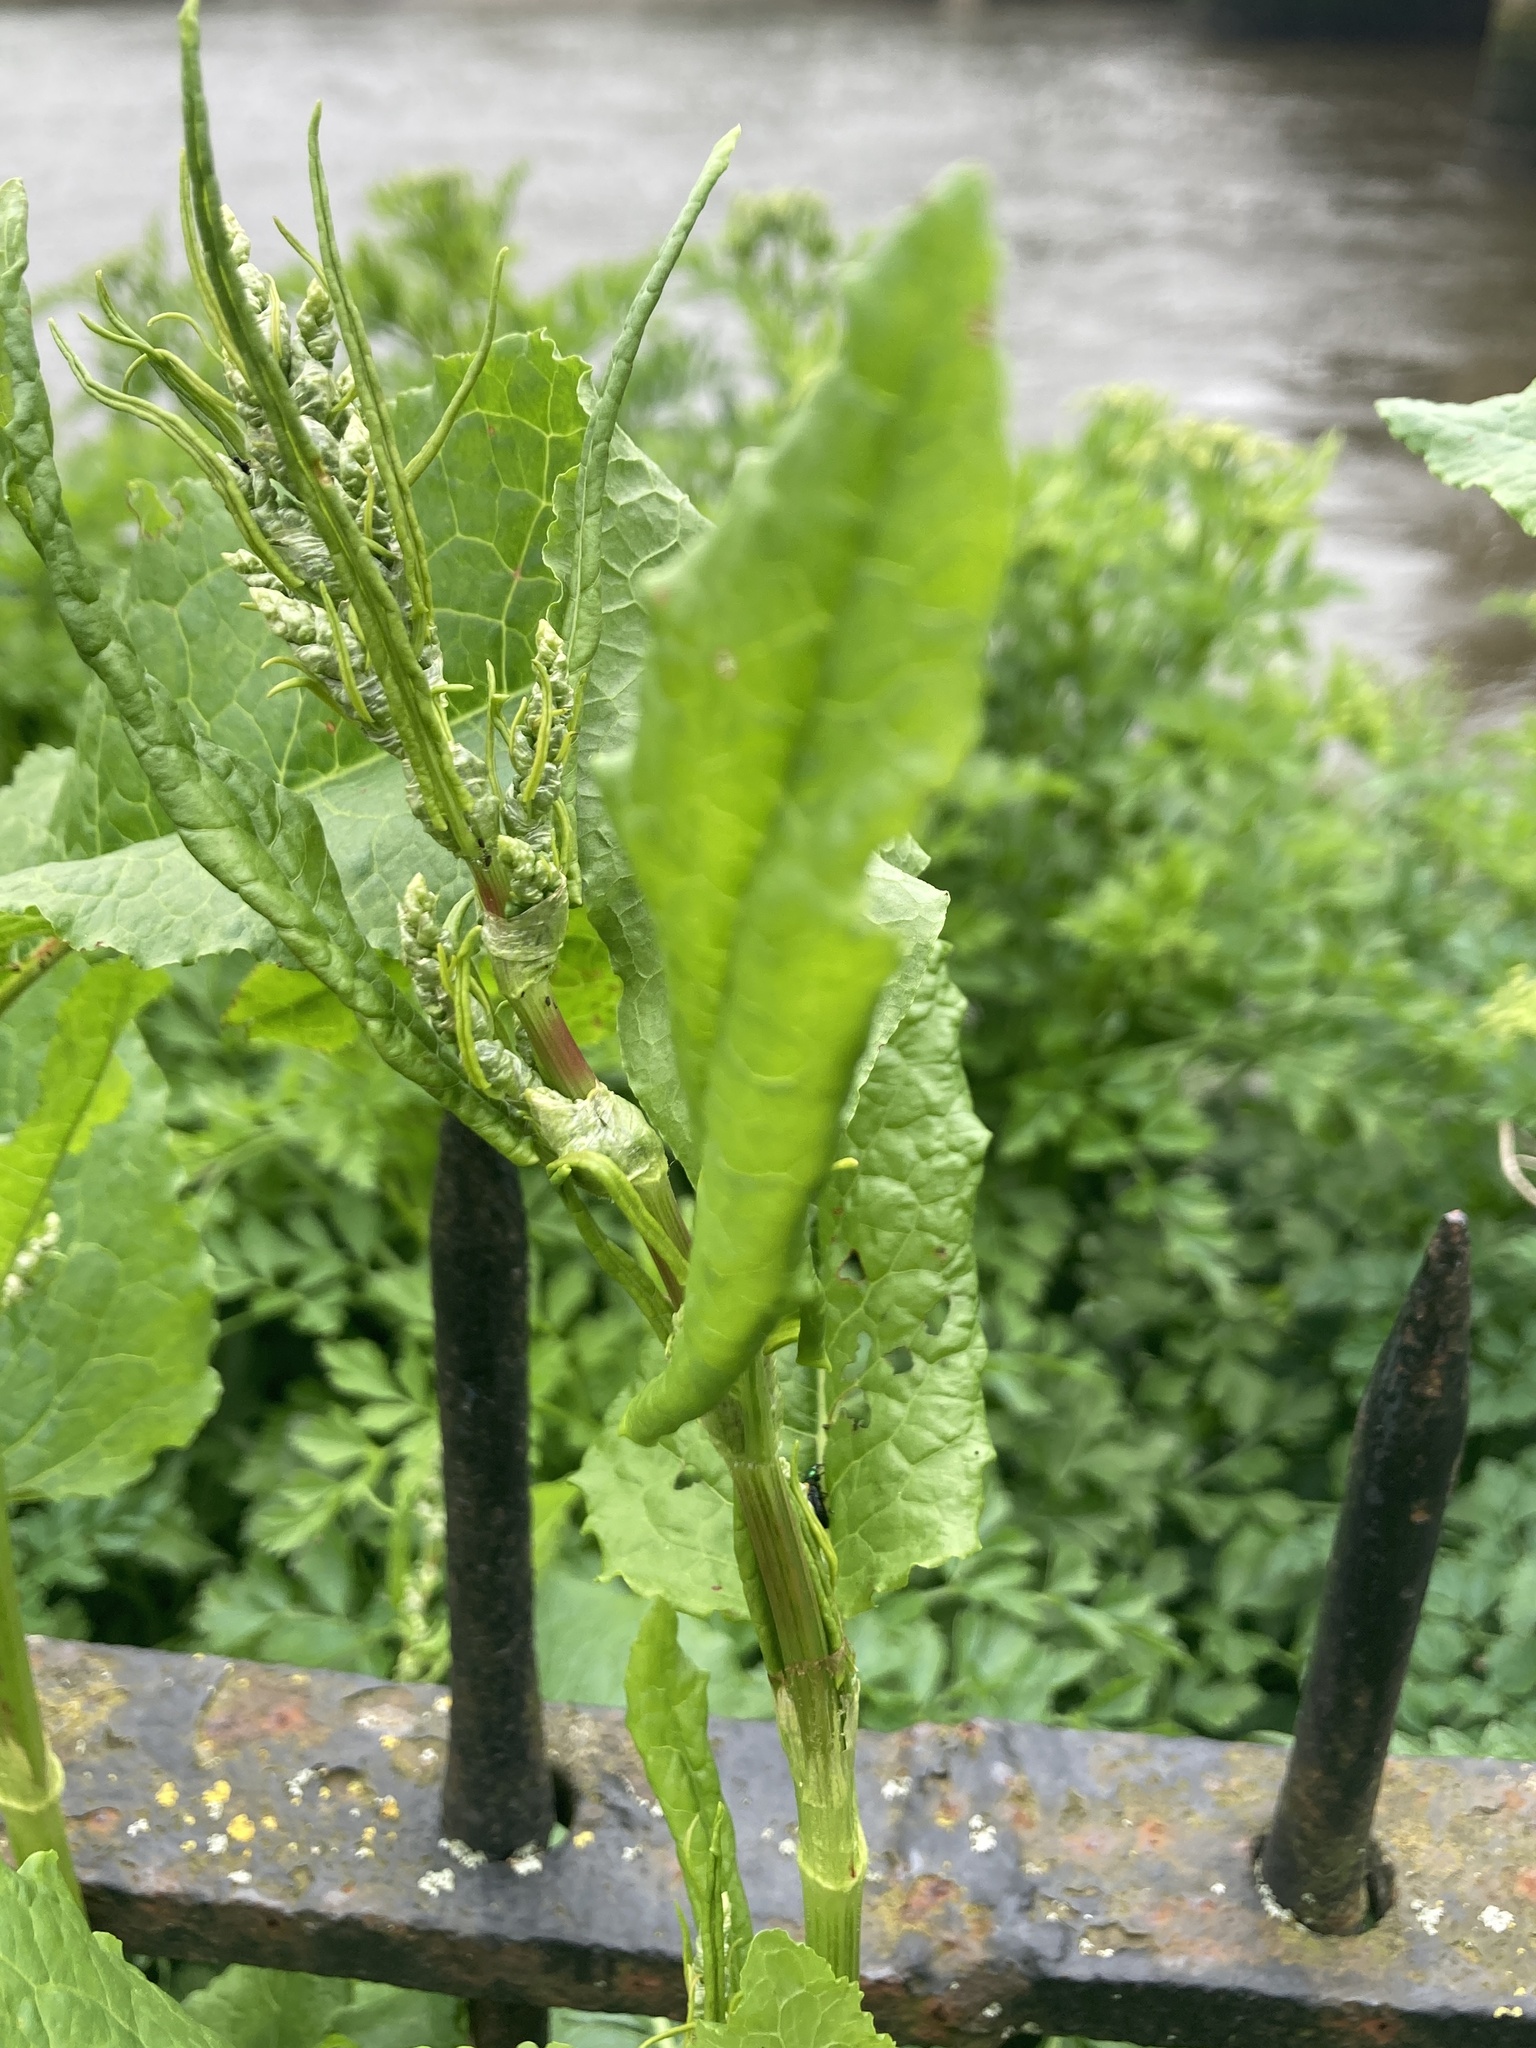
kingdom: Plantae
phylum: Tracheophyta
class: Magnoliopsida
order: Caryophyllales
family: Polygonaceae
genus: Rumex
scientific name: Rumex obtusifolius
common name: Bitter dock
